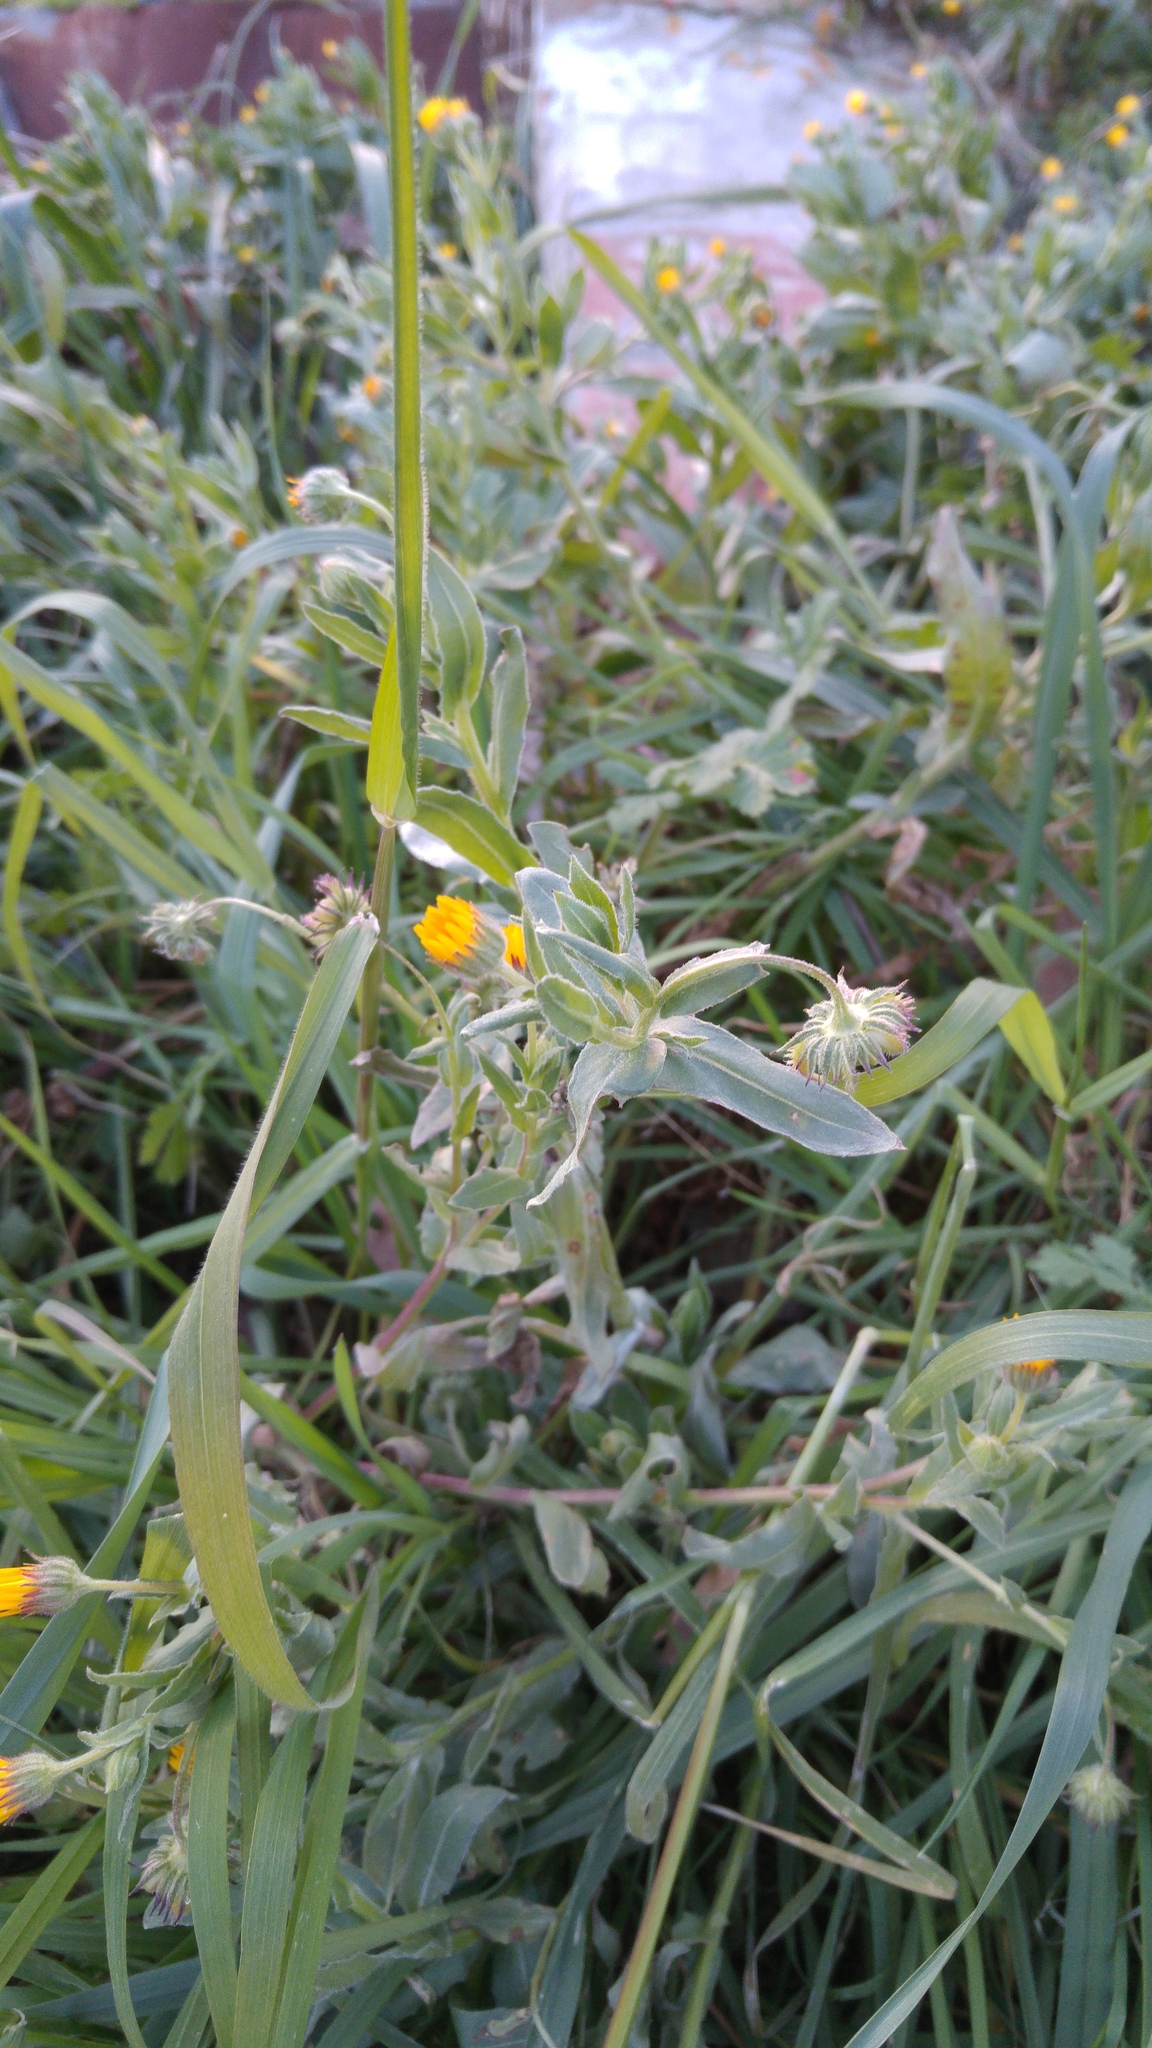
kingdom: Plantae
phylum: Tracheophyta
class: Magnoliopsida
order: Asterales
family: Asteraceae
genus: Calendula
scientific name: Calendula arvensis
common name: Field marigold
